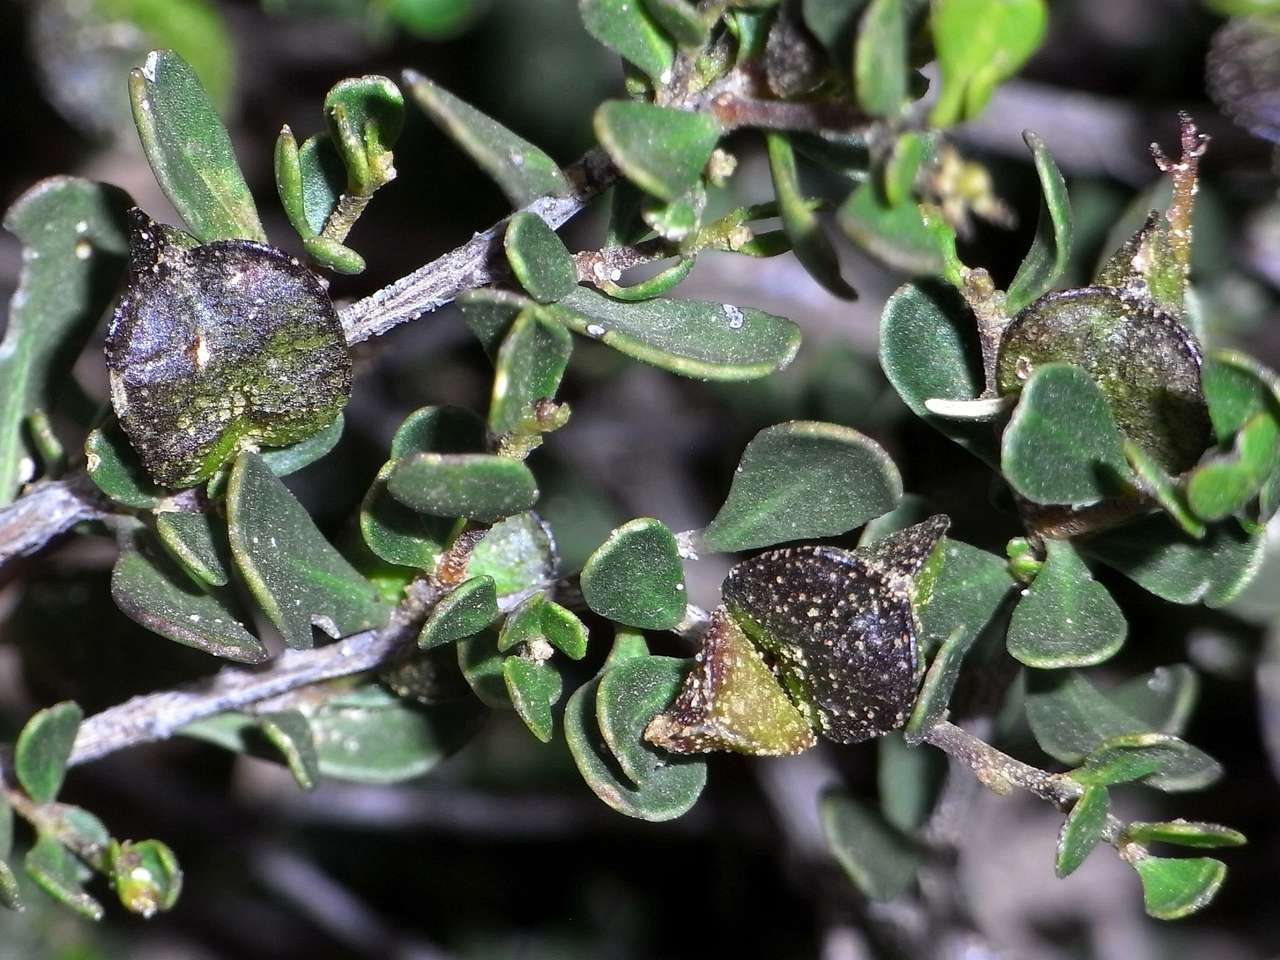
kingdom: Plantae
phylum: Tracheophyta
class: Magnoliopsida
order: Sapindales
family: Sapindaceae
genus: Dodonaea
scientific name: Dodonaea bursariifolia
